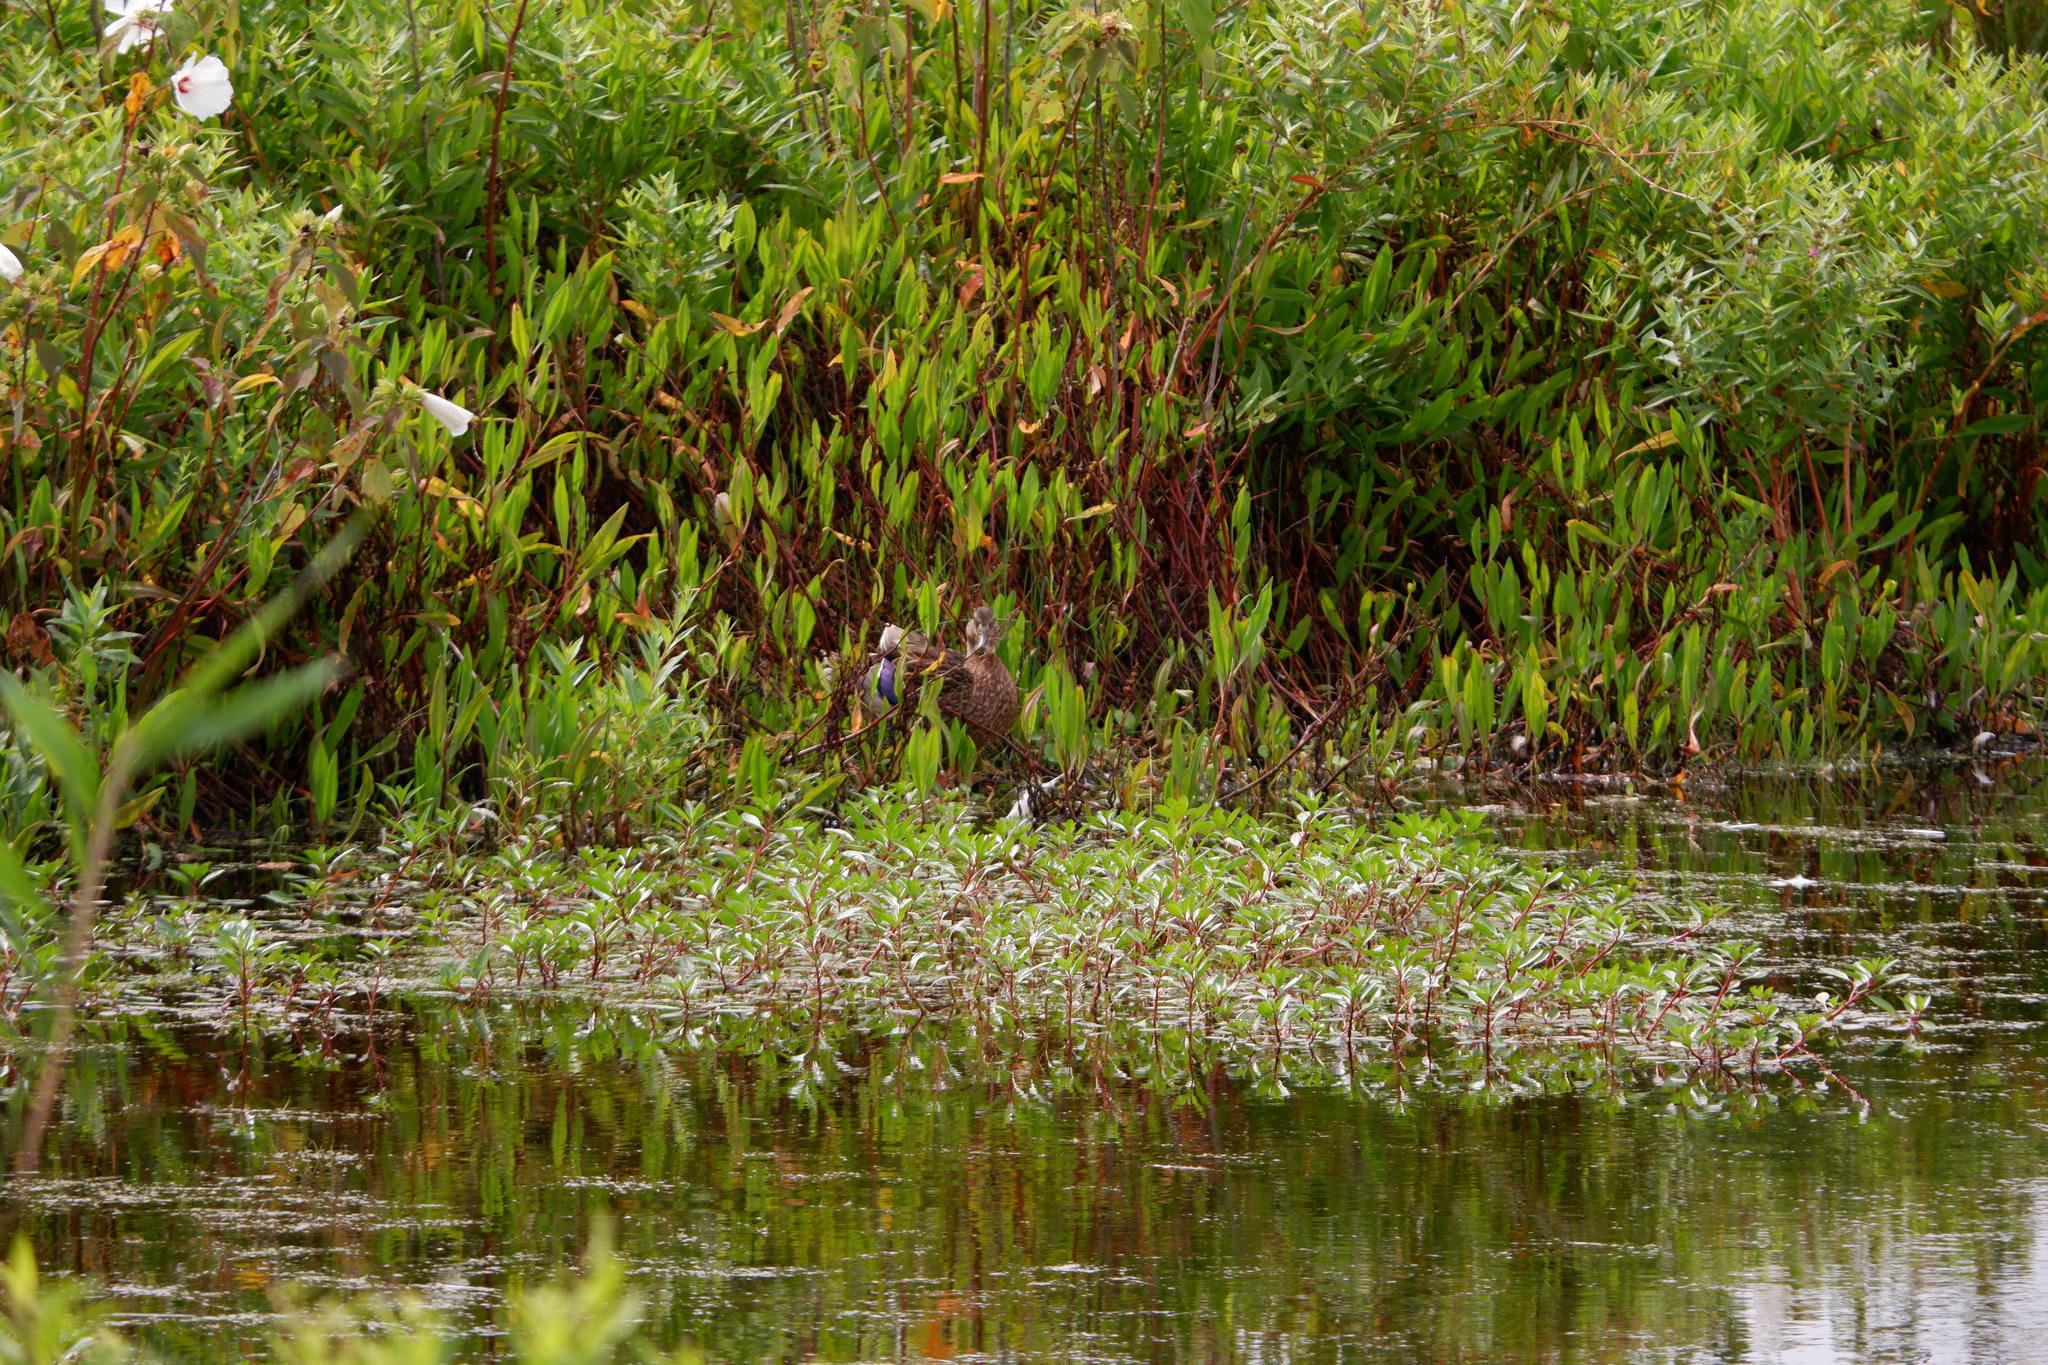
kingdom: Animalia
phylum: Chordata
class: Aves
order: Anseriformes
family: Anatidae
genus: Anas
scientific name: Anas platyrhynchos
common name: Mallard
